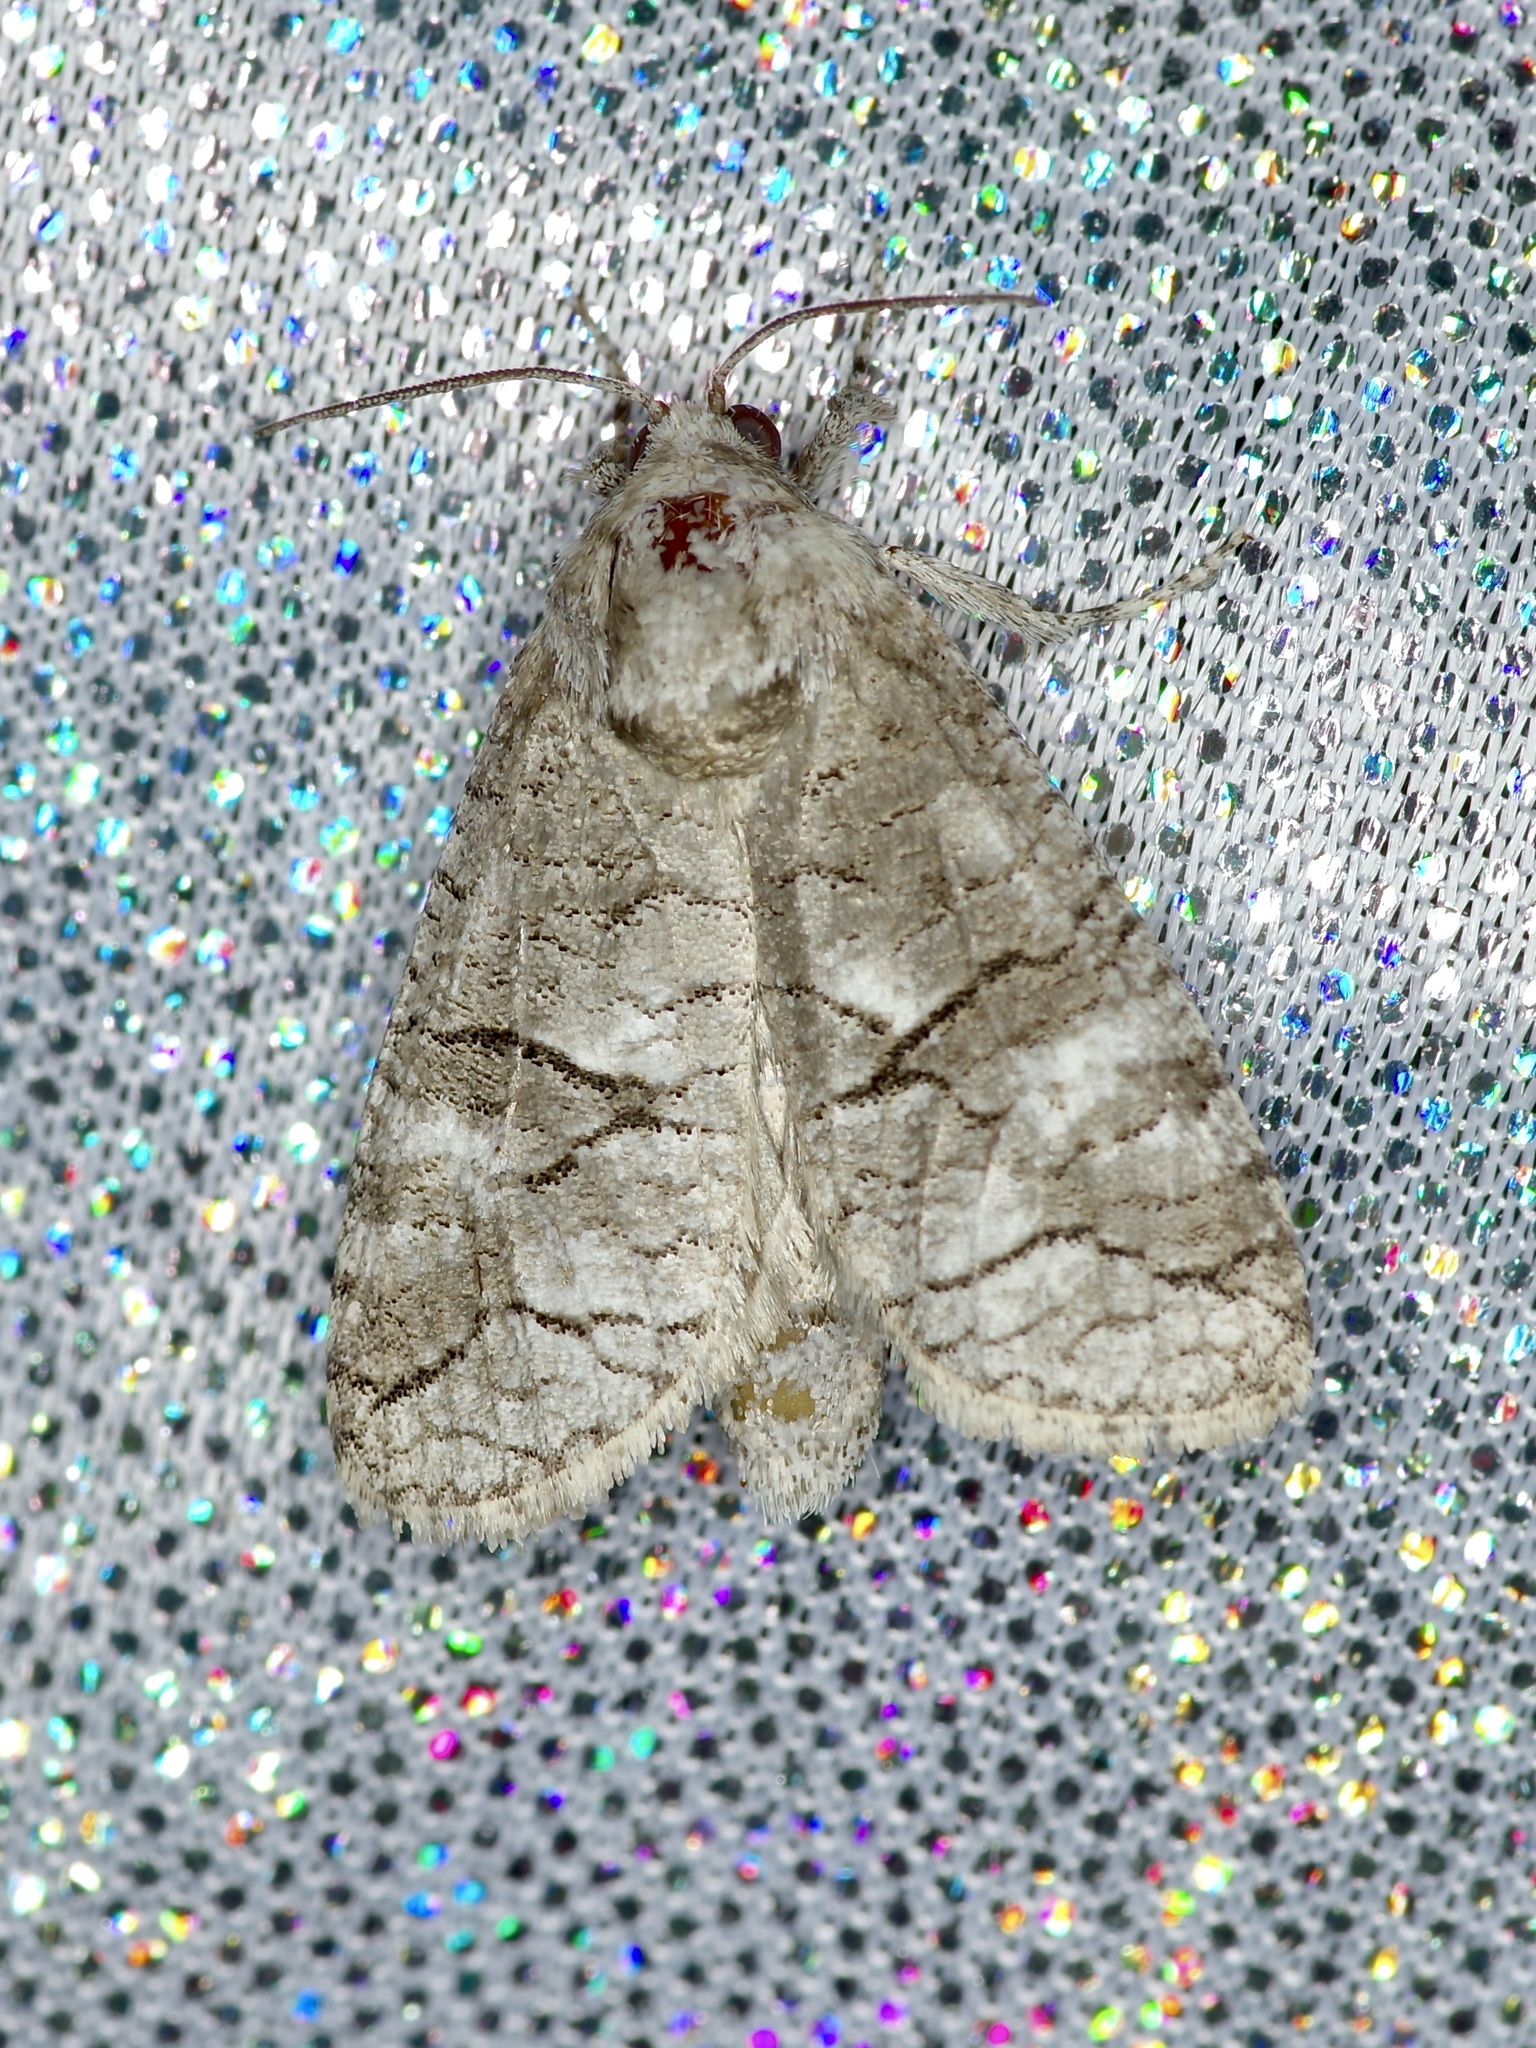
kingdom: Animalia
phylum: Arthropoda
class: Insecta
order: Lepidoptera
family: Cossidae
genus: Fania
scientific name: Fania nanus
